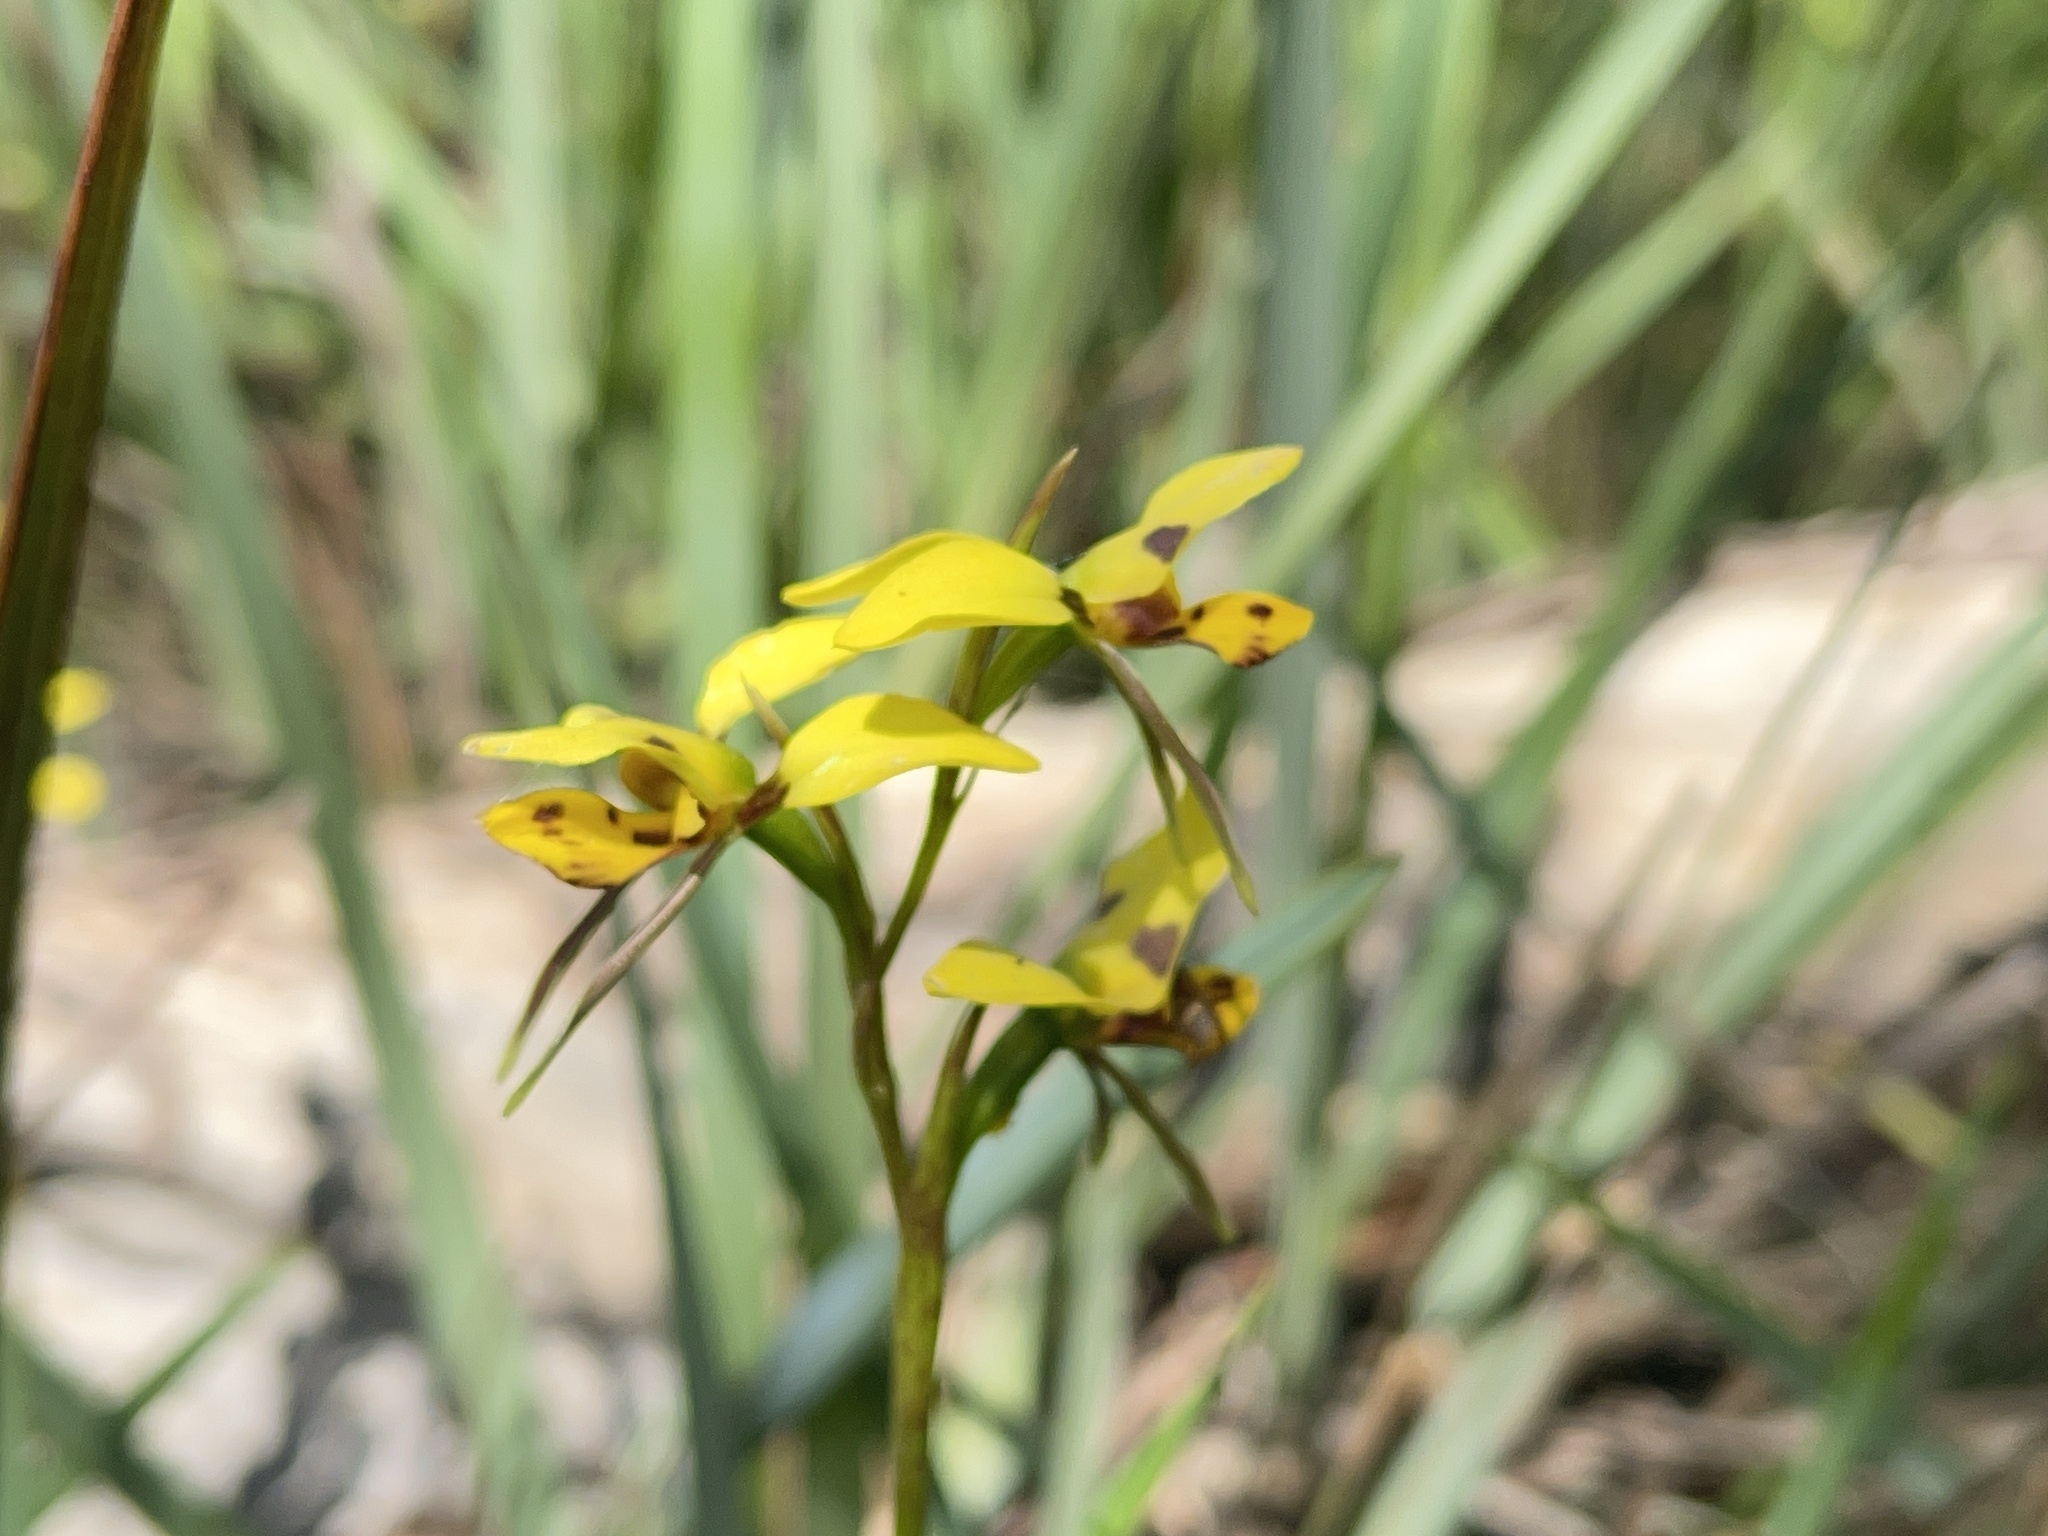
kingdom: Plantae
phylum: Tracheophyta
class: Liliopsida
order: Asparagales
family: Orchidaceae
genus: Diuris
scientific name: Diuris sulphurea
